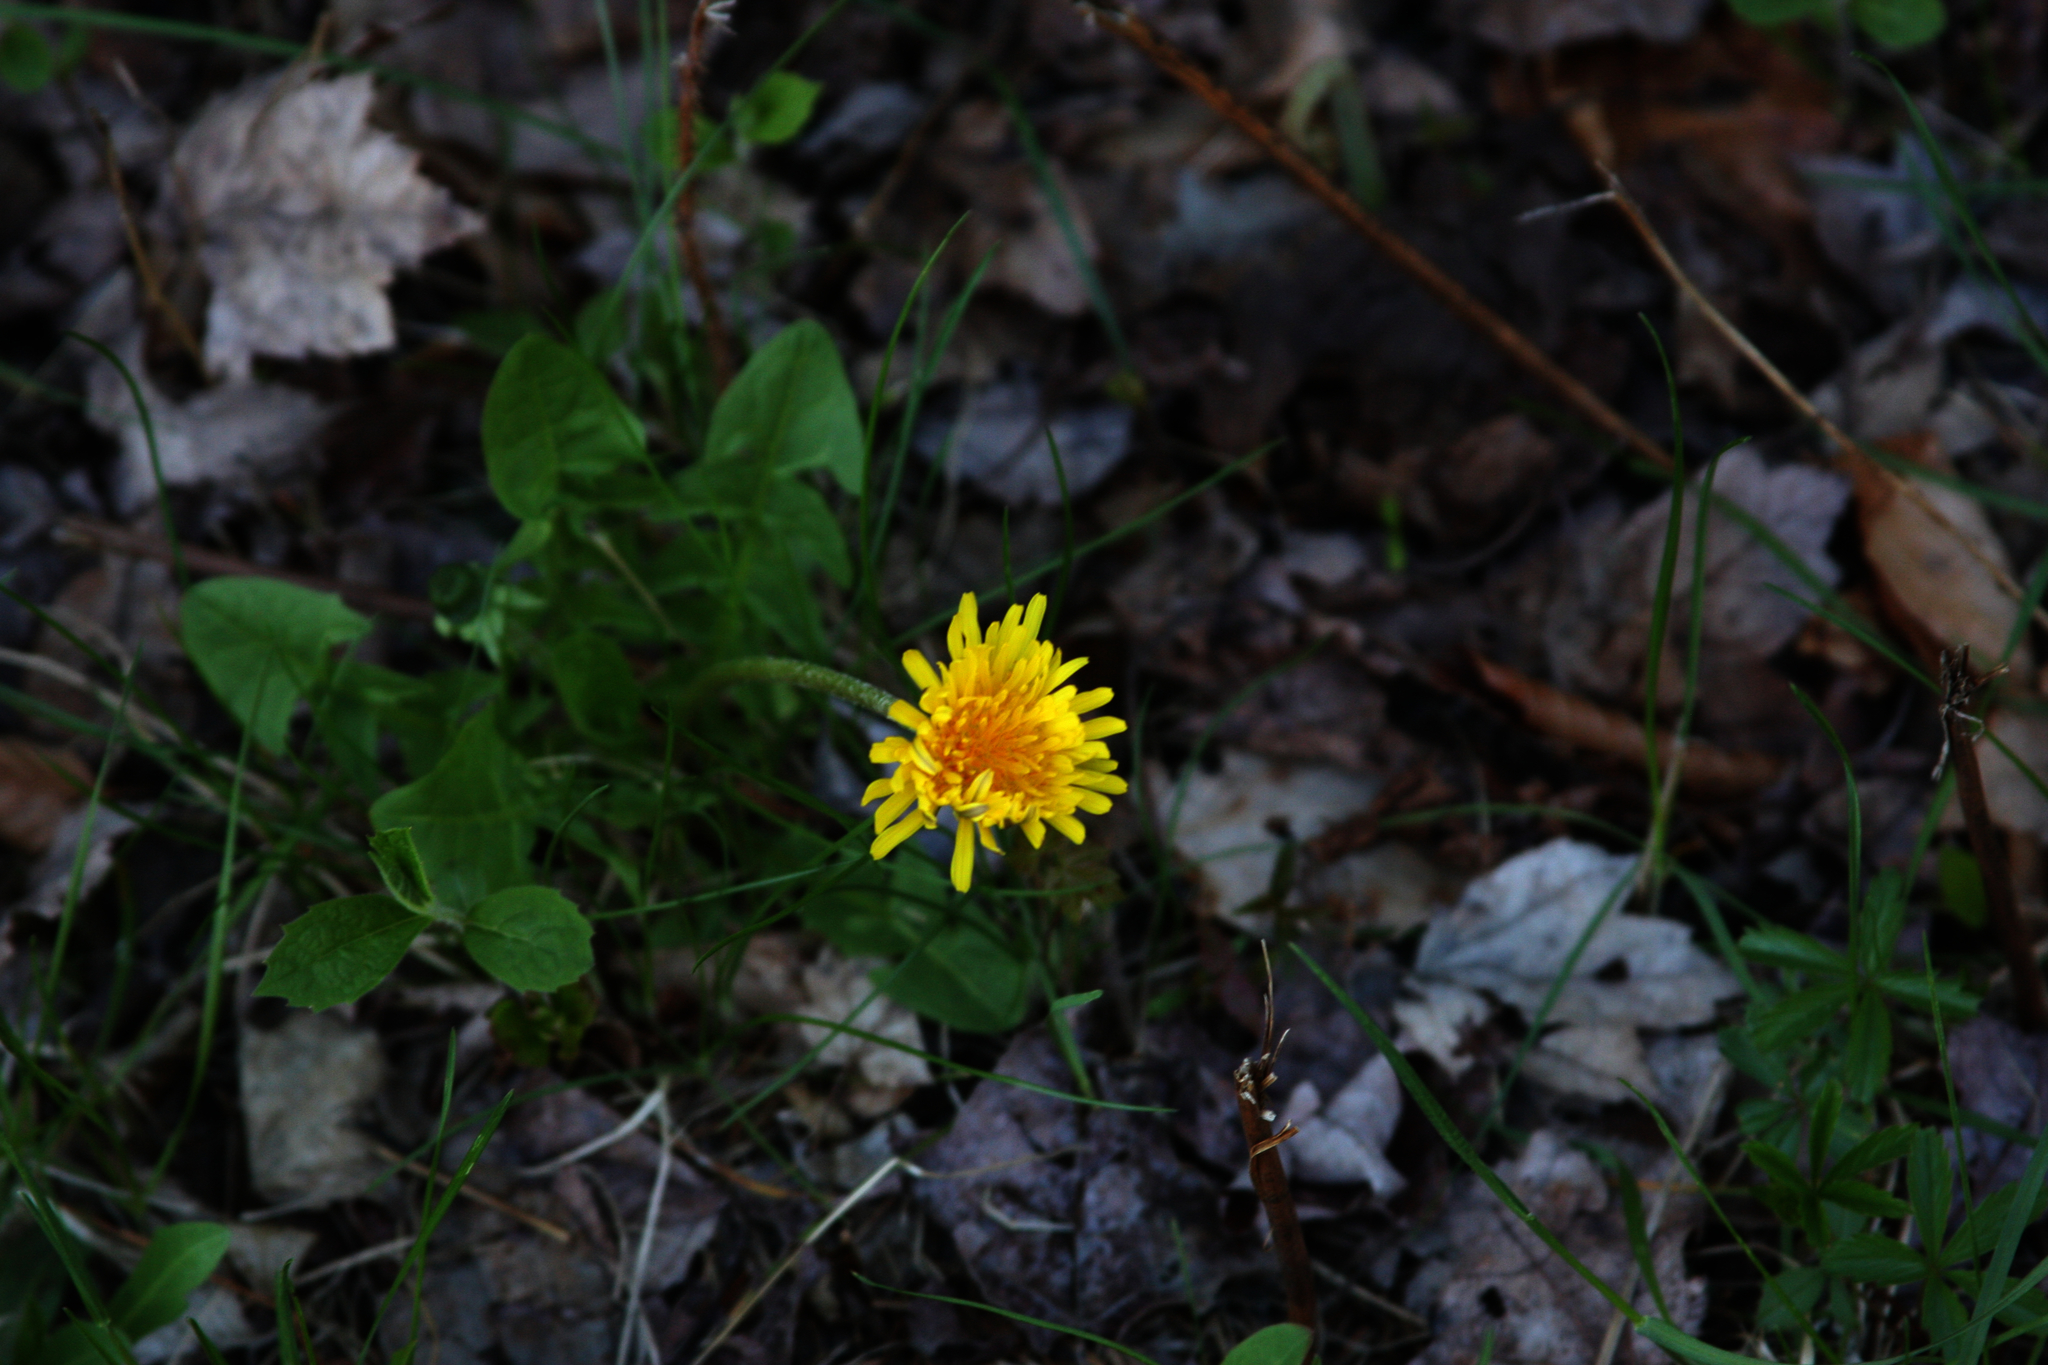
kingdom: Plantae
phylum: Tracheophyta
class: Magnoliopsida
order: Asterales
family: Asteraceae
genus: Taraxacum
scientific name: Taraxacum officinale
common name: Common dandelion
